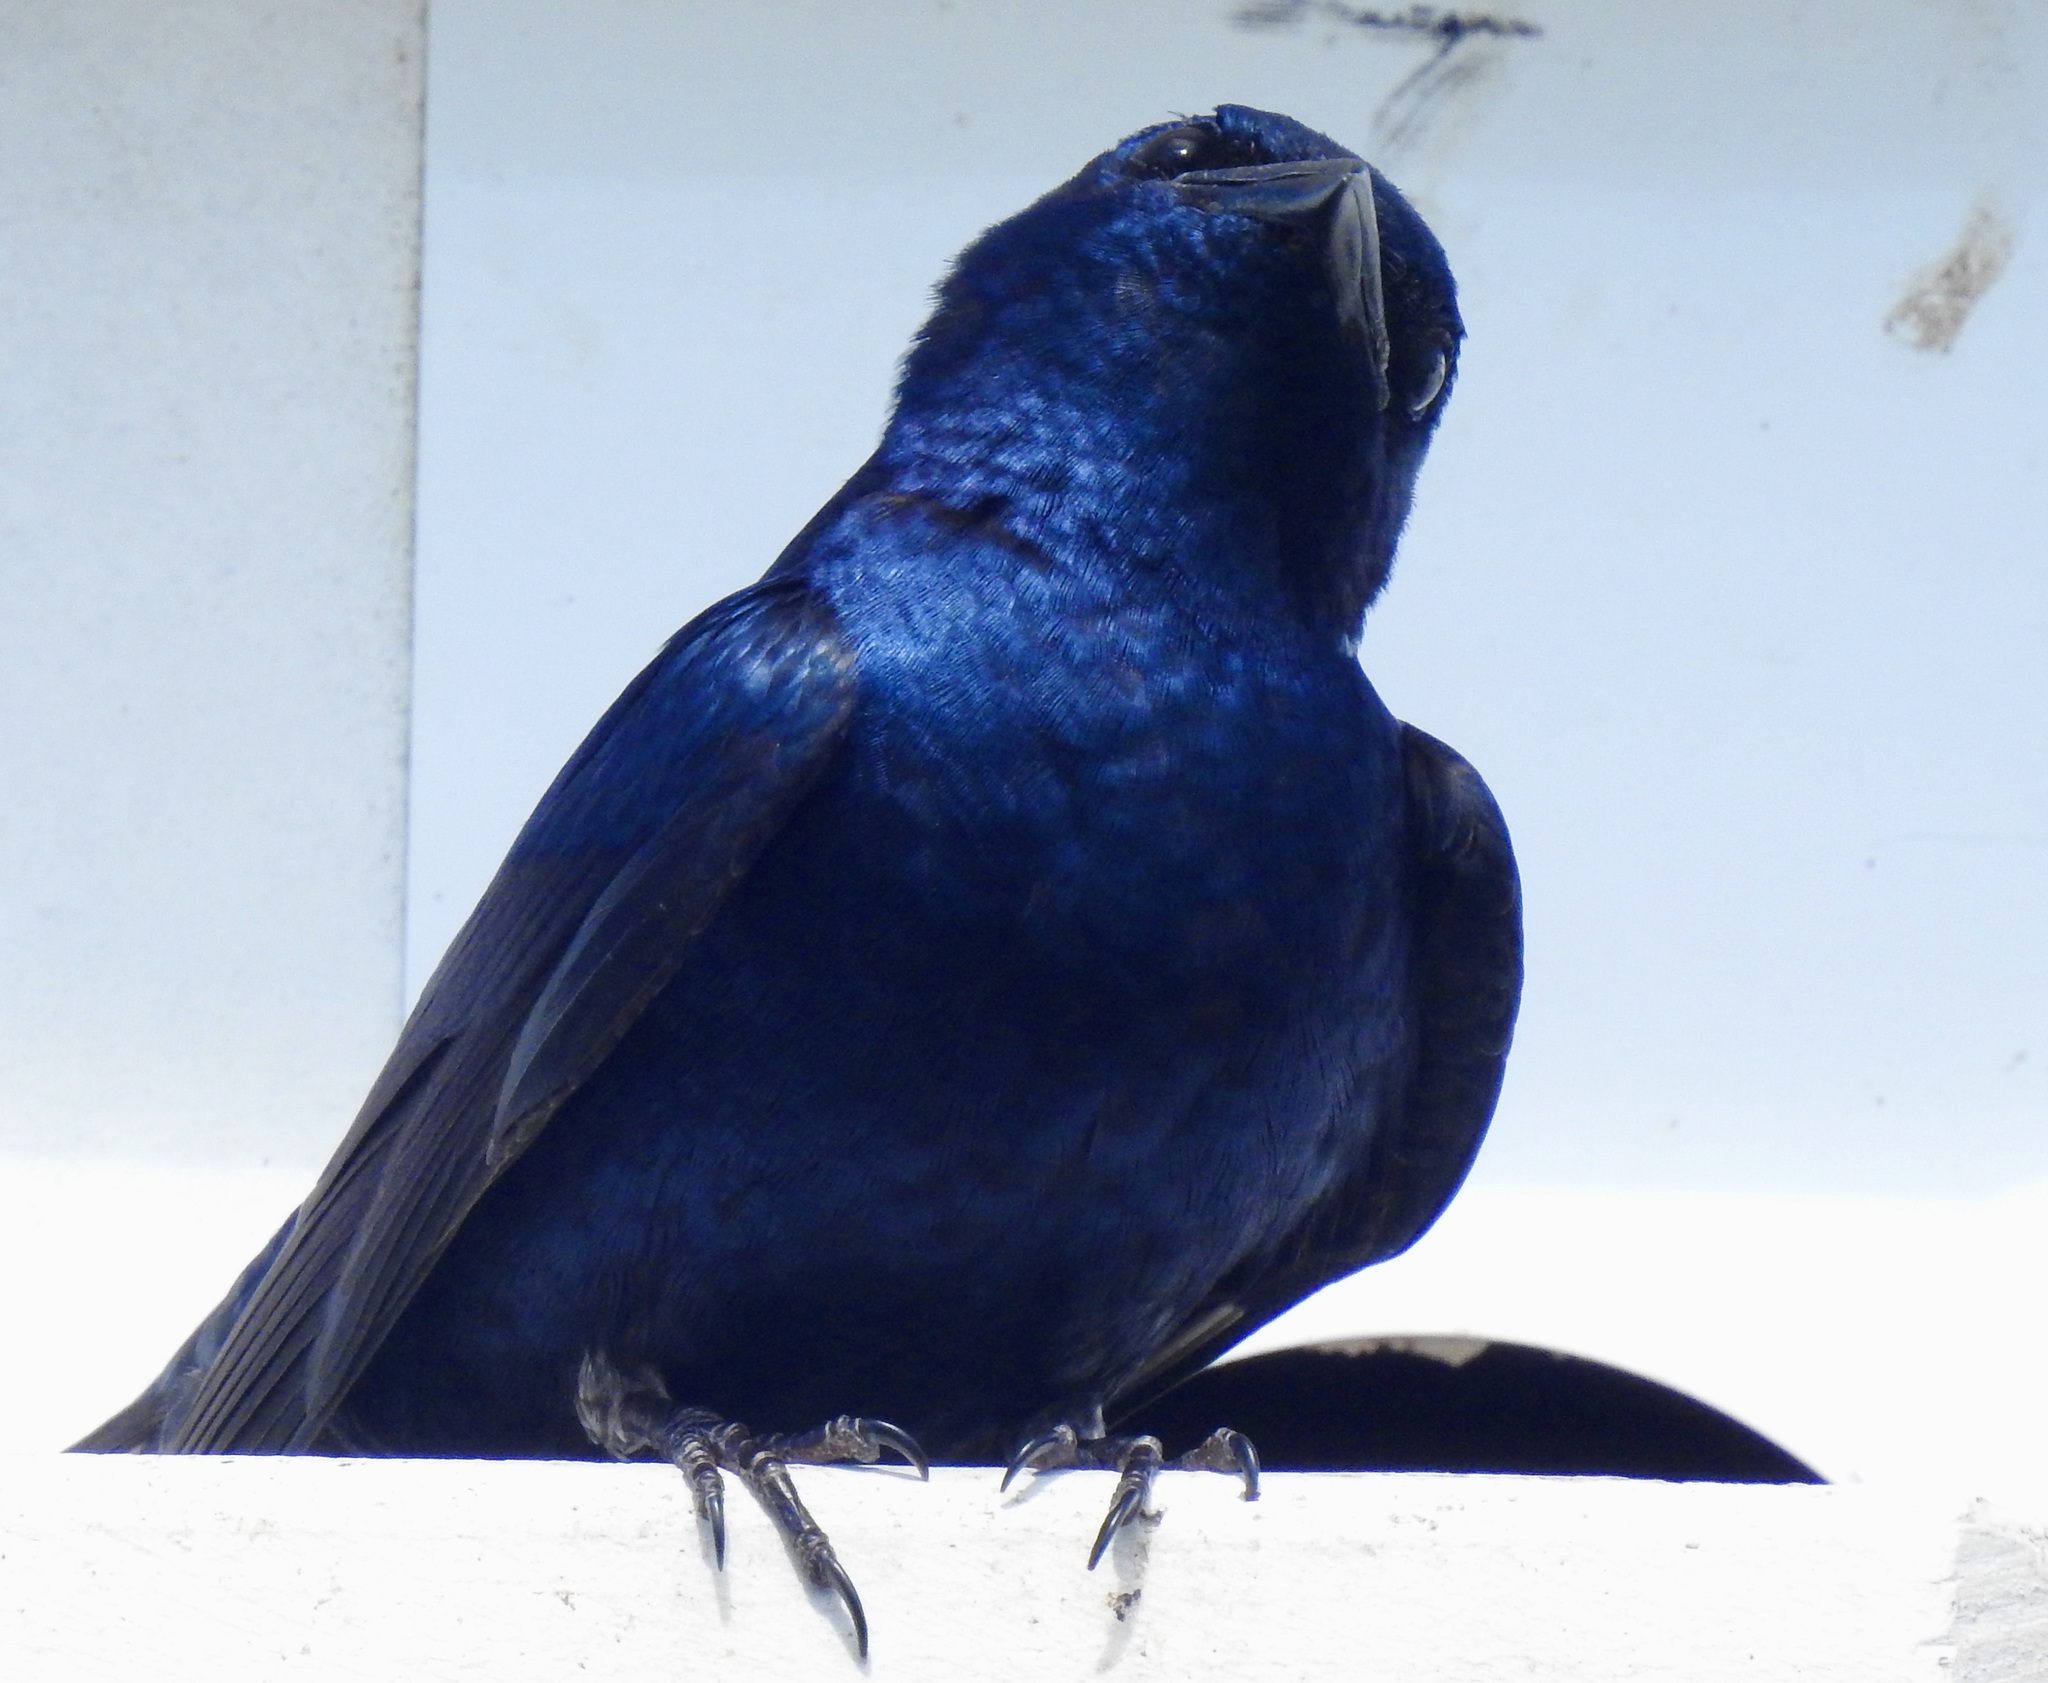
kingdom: Animalia
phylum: Chordata
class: Aves
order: Passeriformes
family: Hirundinidae
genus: Progne
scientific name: Progne subis
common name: Purple martin
